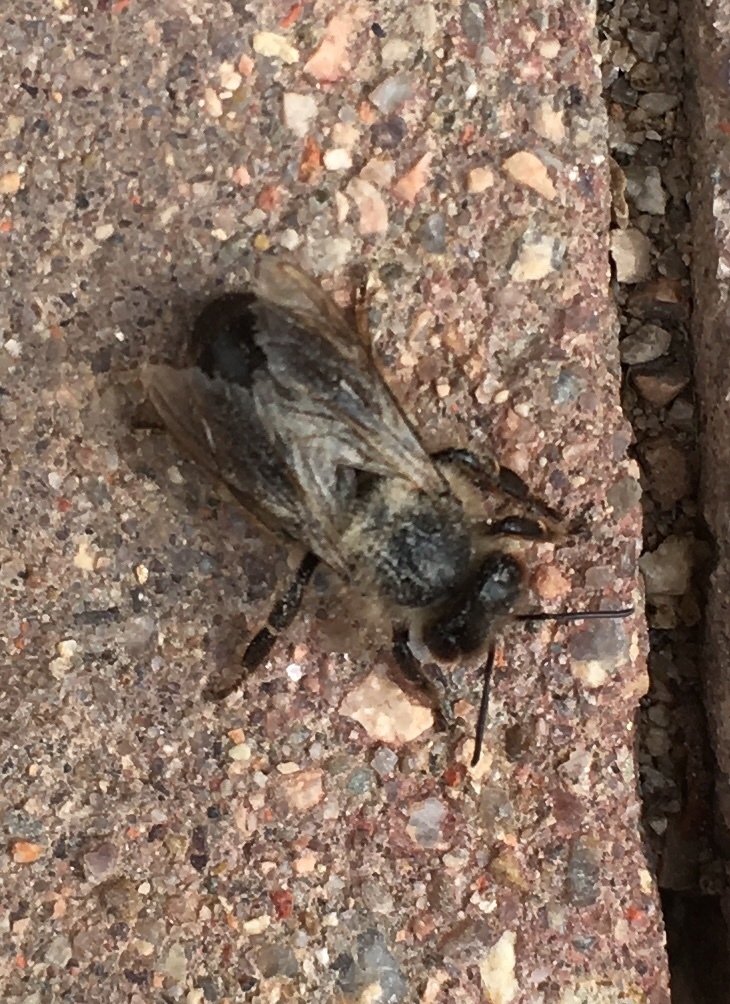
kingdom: Animalia
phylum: Arthropoda
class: Insecta
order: Hymenoptera
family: Apidae
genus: Apis
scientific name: Apis mellifera
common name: Honey bee
